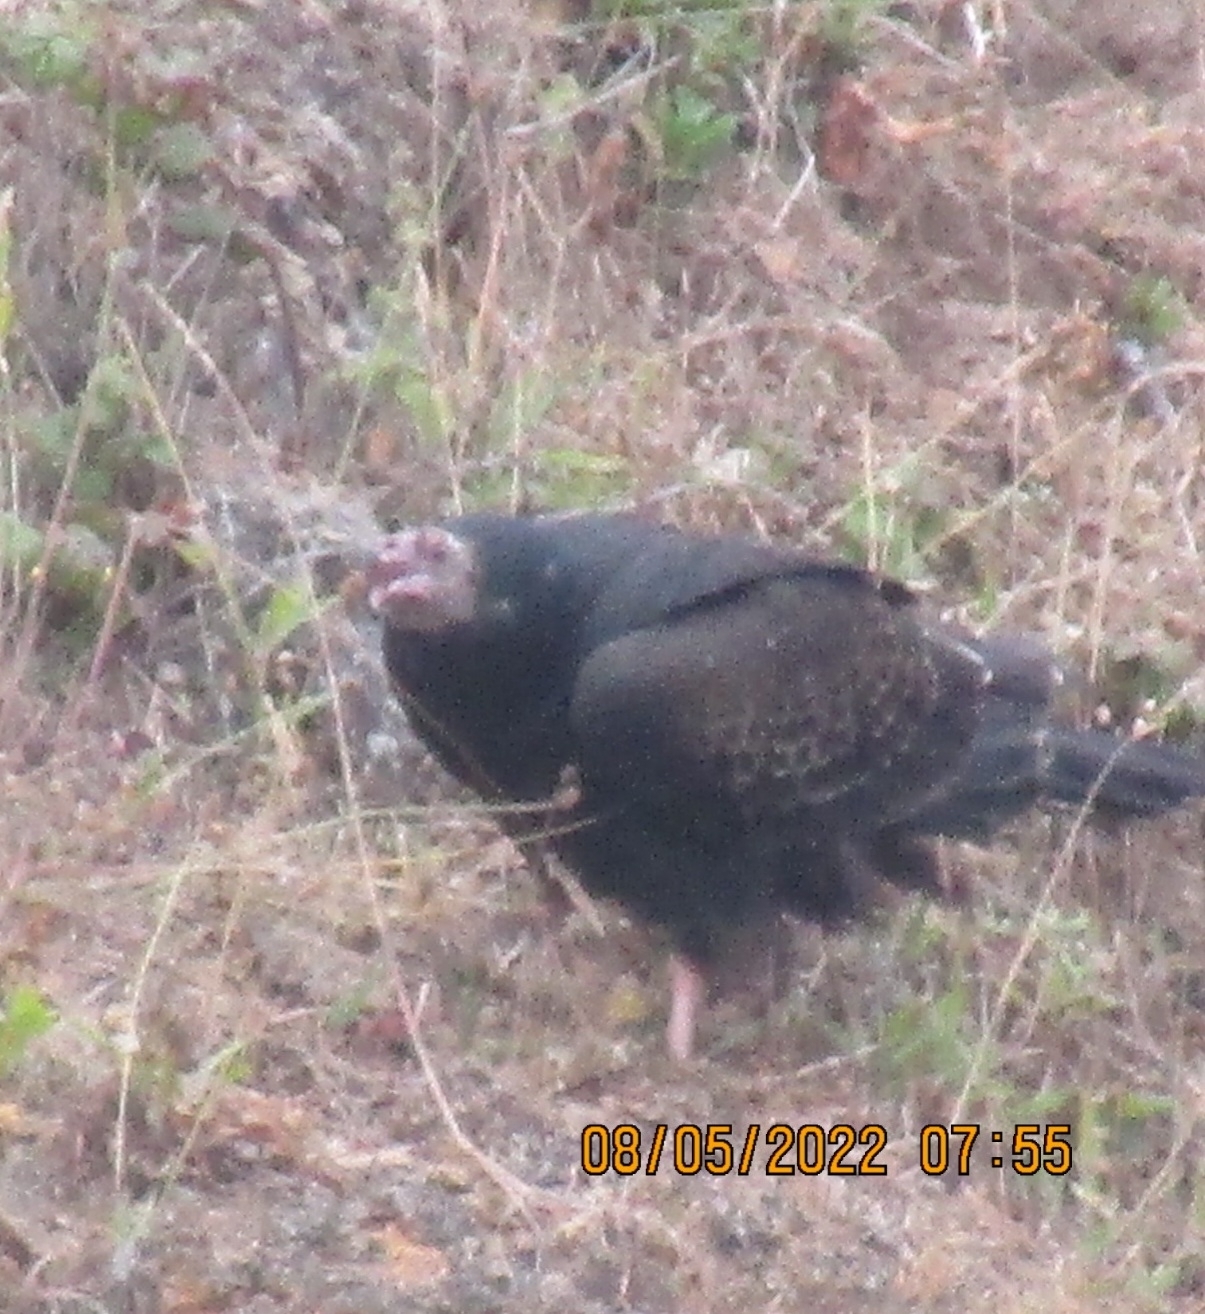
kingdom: Animalia
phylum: Chordata
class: Aves
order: Accipitriformes
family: Cathartidae
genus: Cathartes
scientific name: Cathartes aura
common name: Turkey vulture
